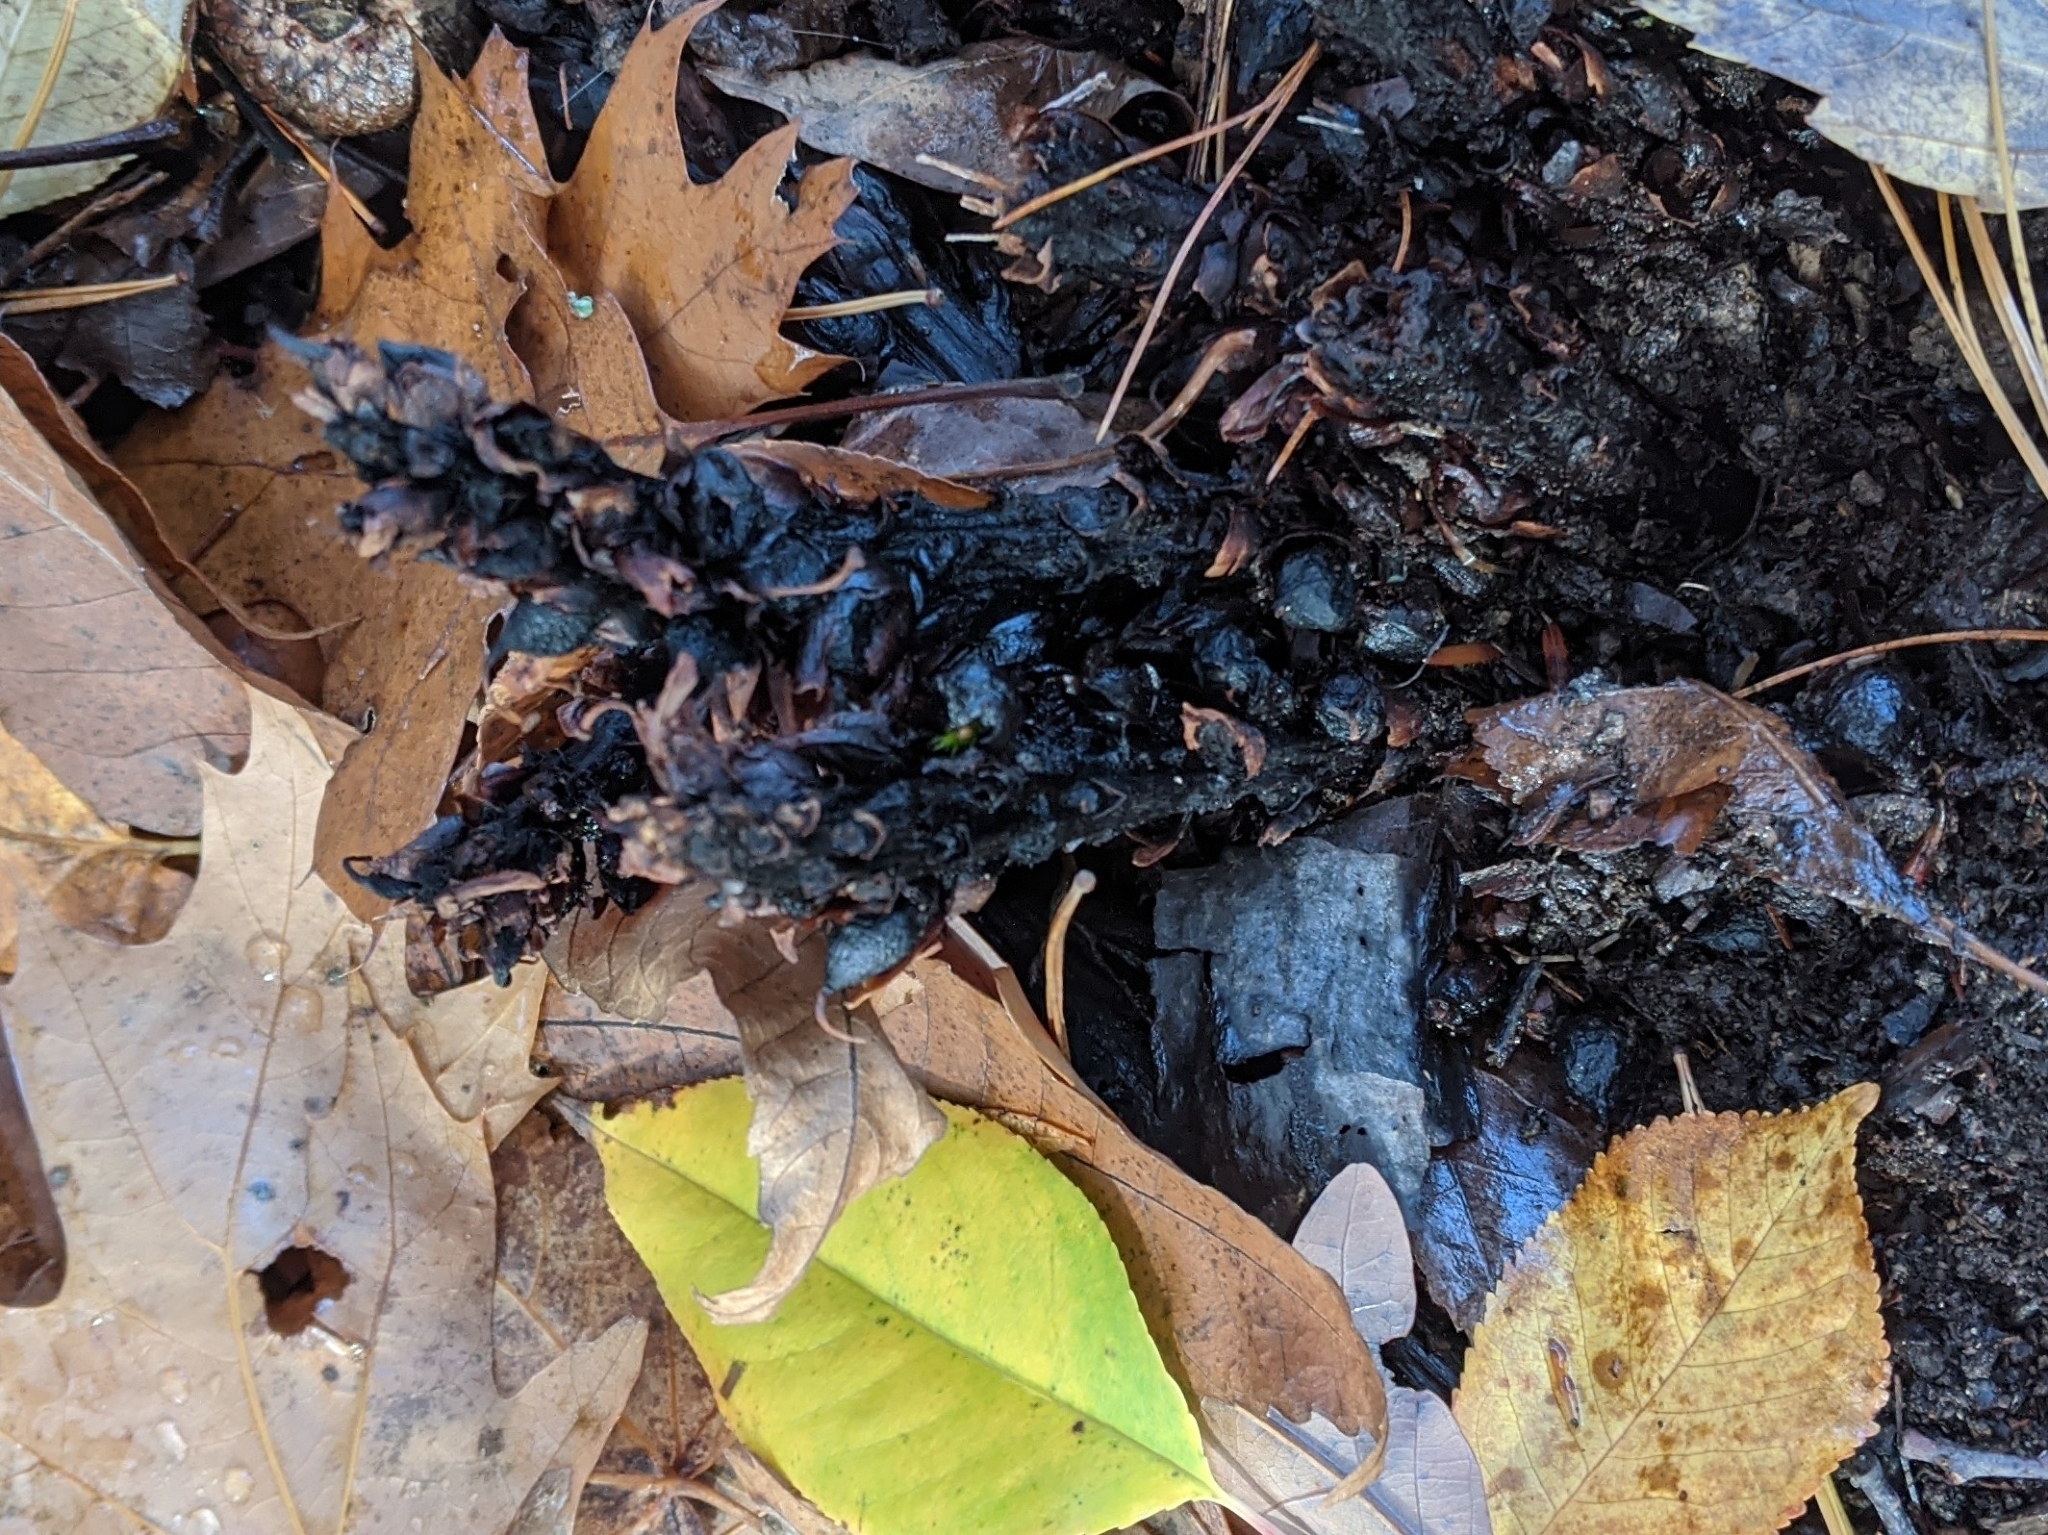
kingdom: Plantae
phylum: Tracheophyta
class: Magnoliopsida
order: Lamiales
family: Orobanchaceae
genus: Conopholis
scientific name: Conopholis americana
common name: American cancer-root
